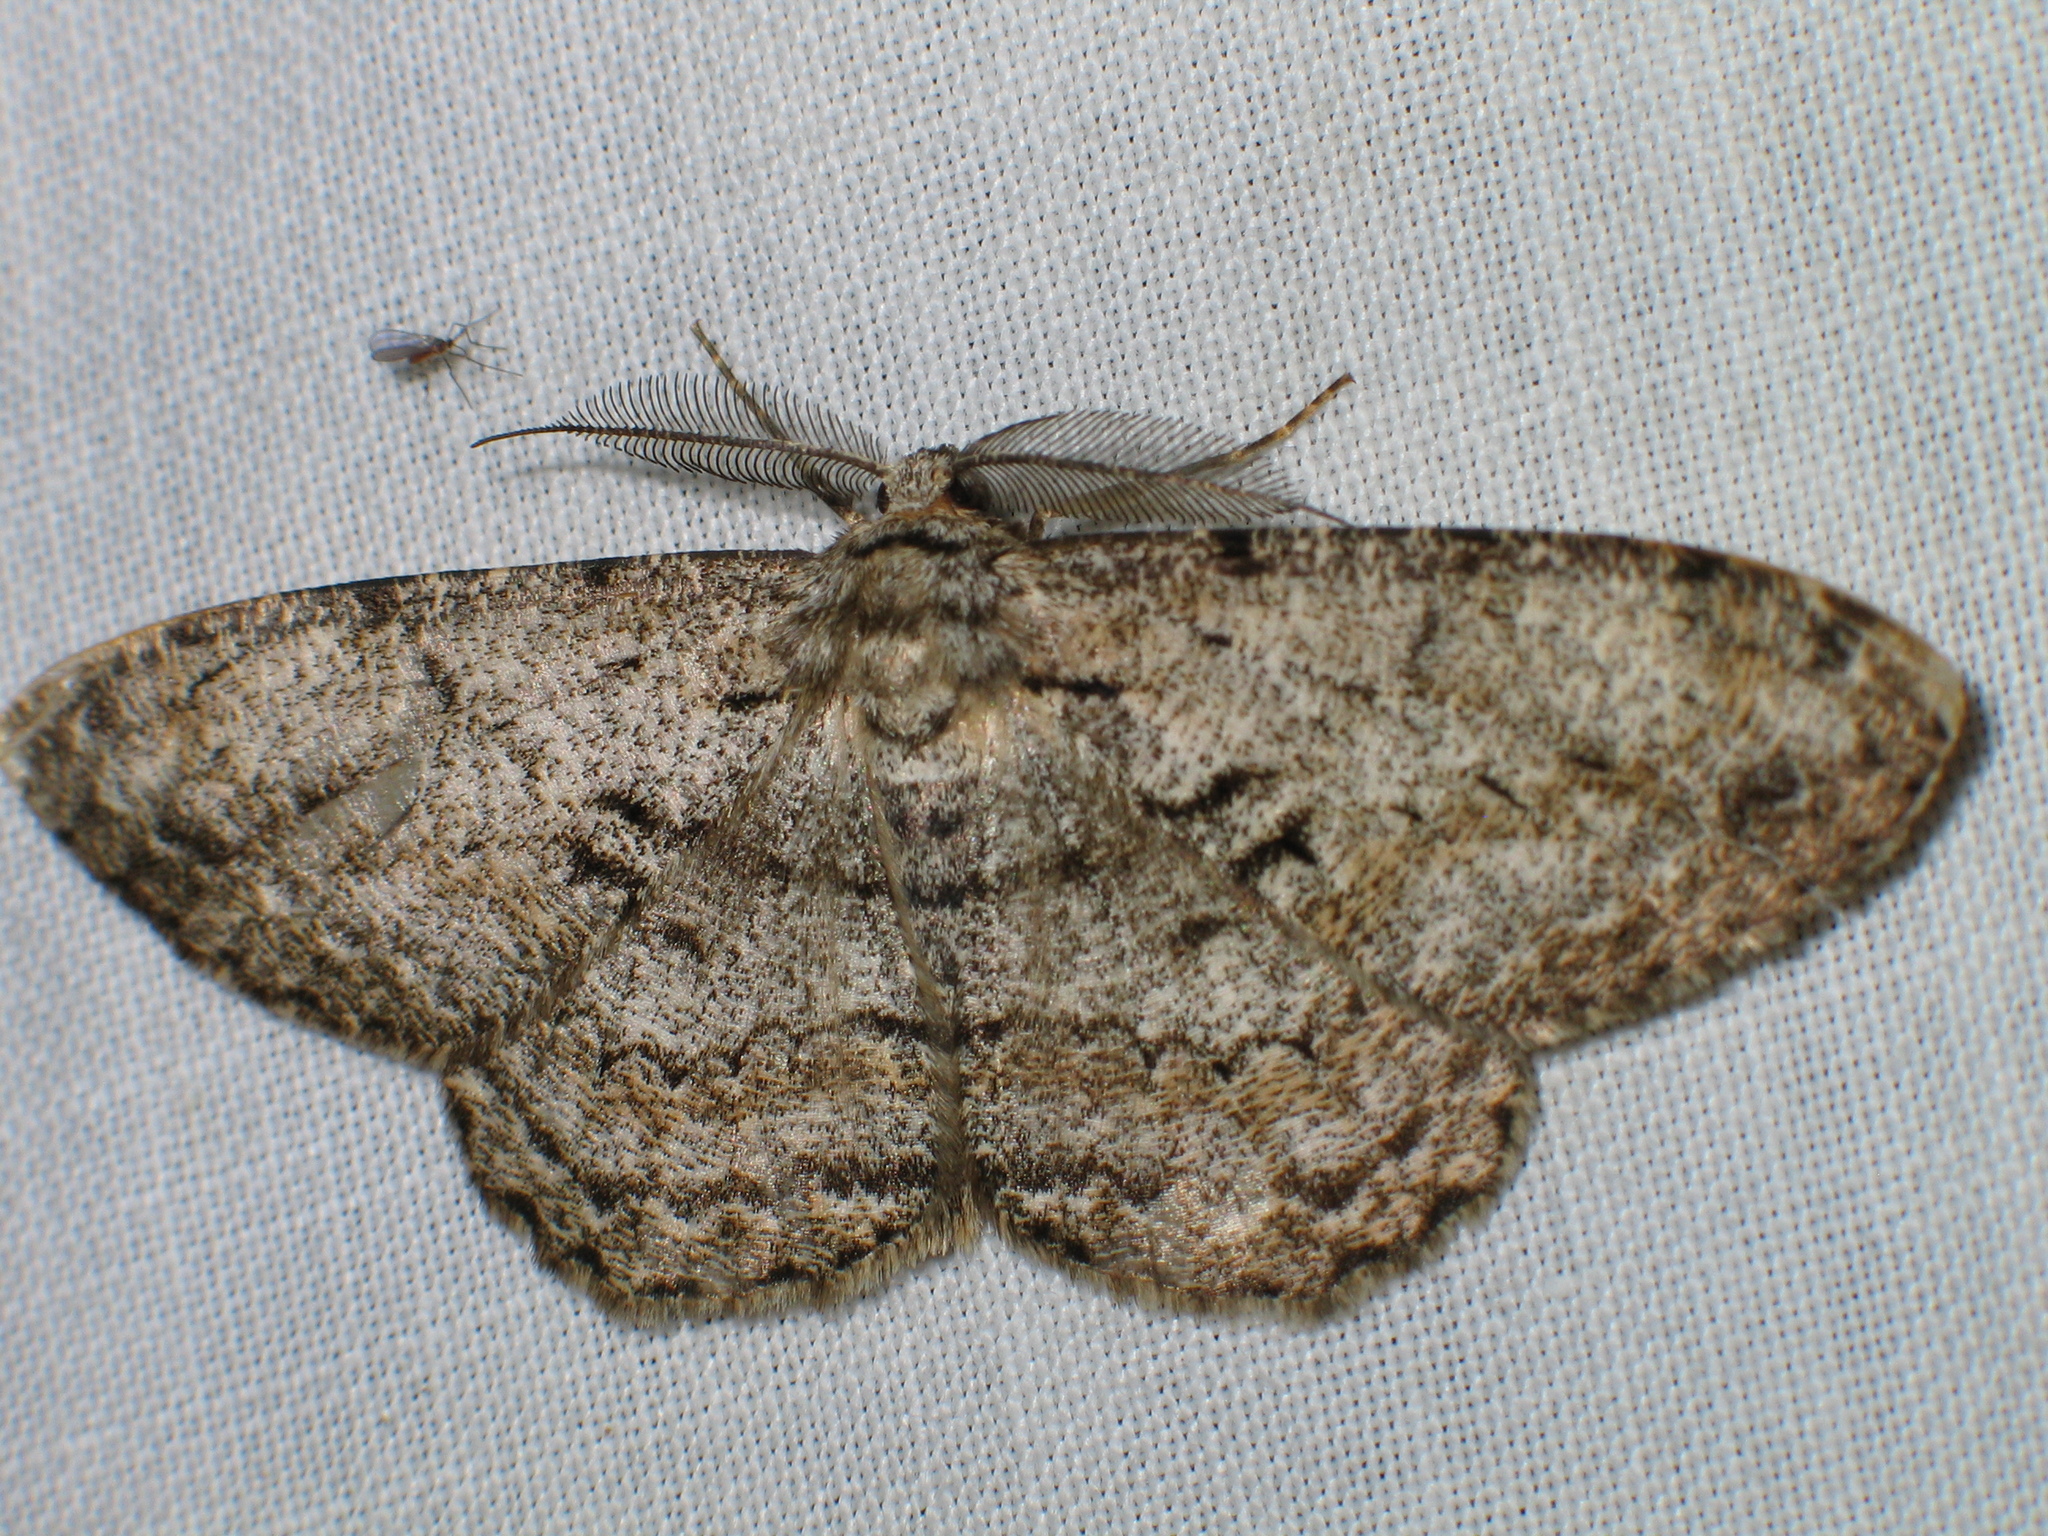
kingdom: Animalia
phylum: Arthropoda
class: Insecta
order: Lepidoptera
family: Geometridae
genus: Hypomecis
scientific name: Hypomecis roboraria
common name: Great oak beauty
